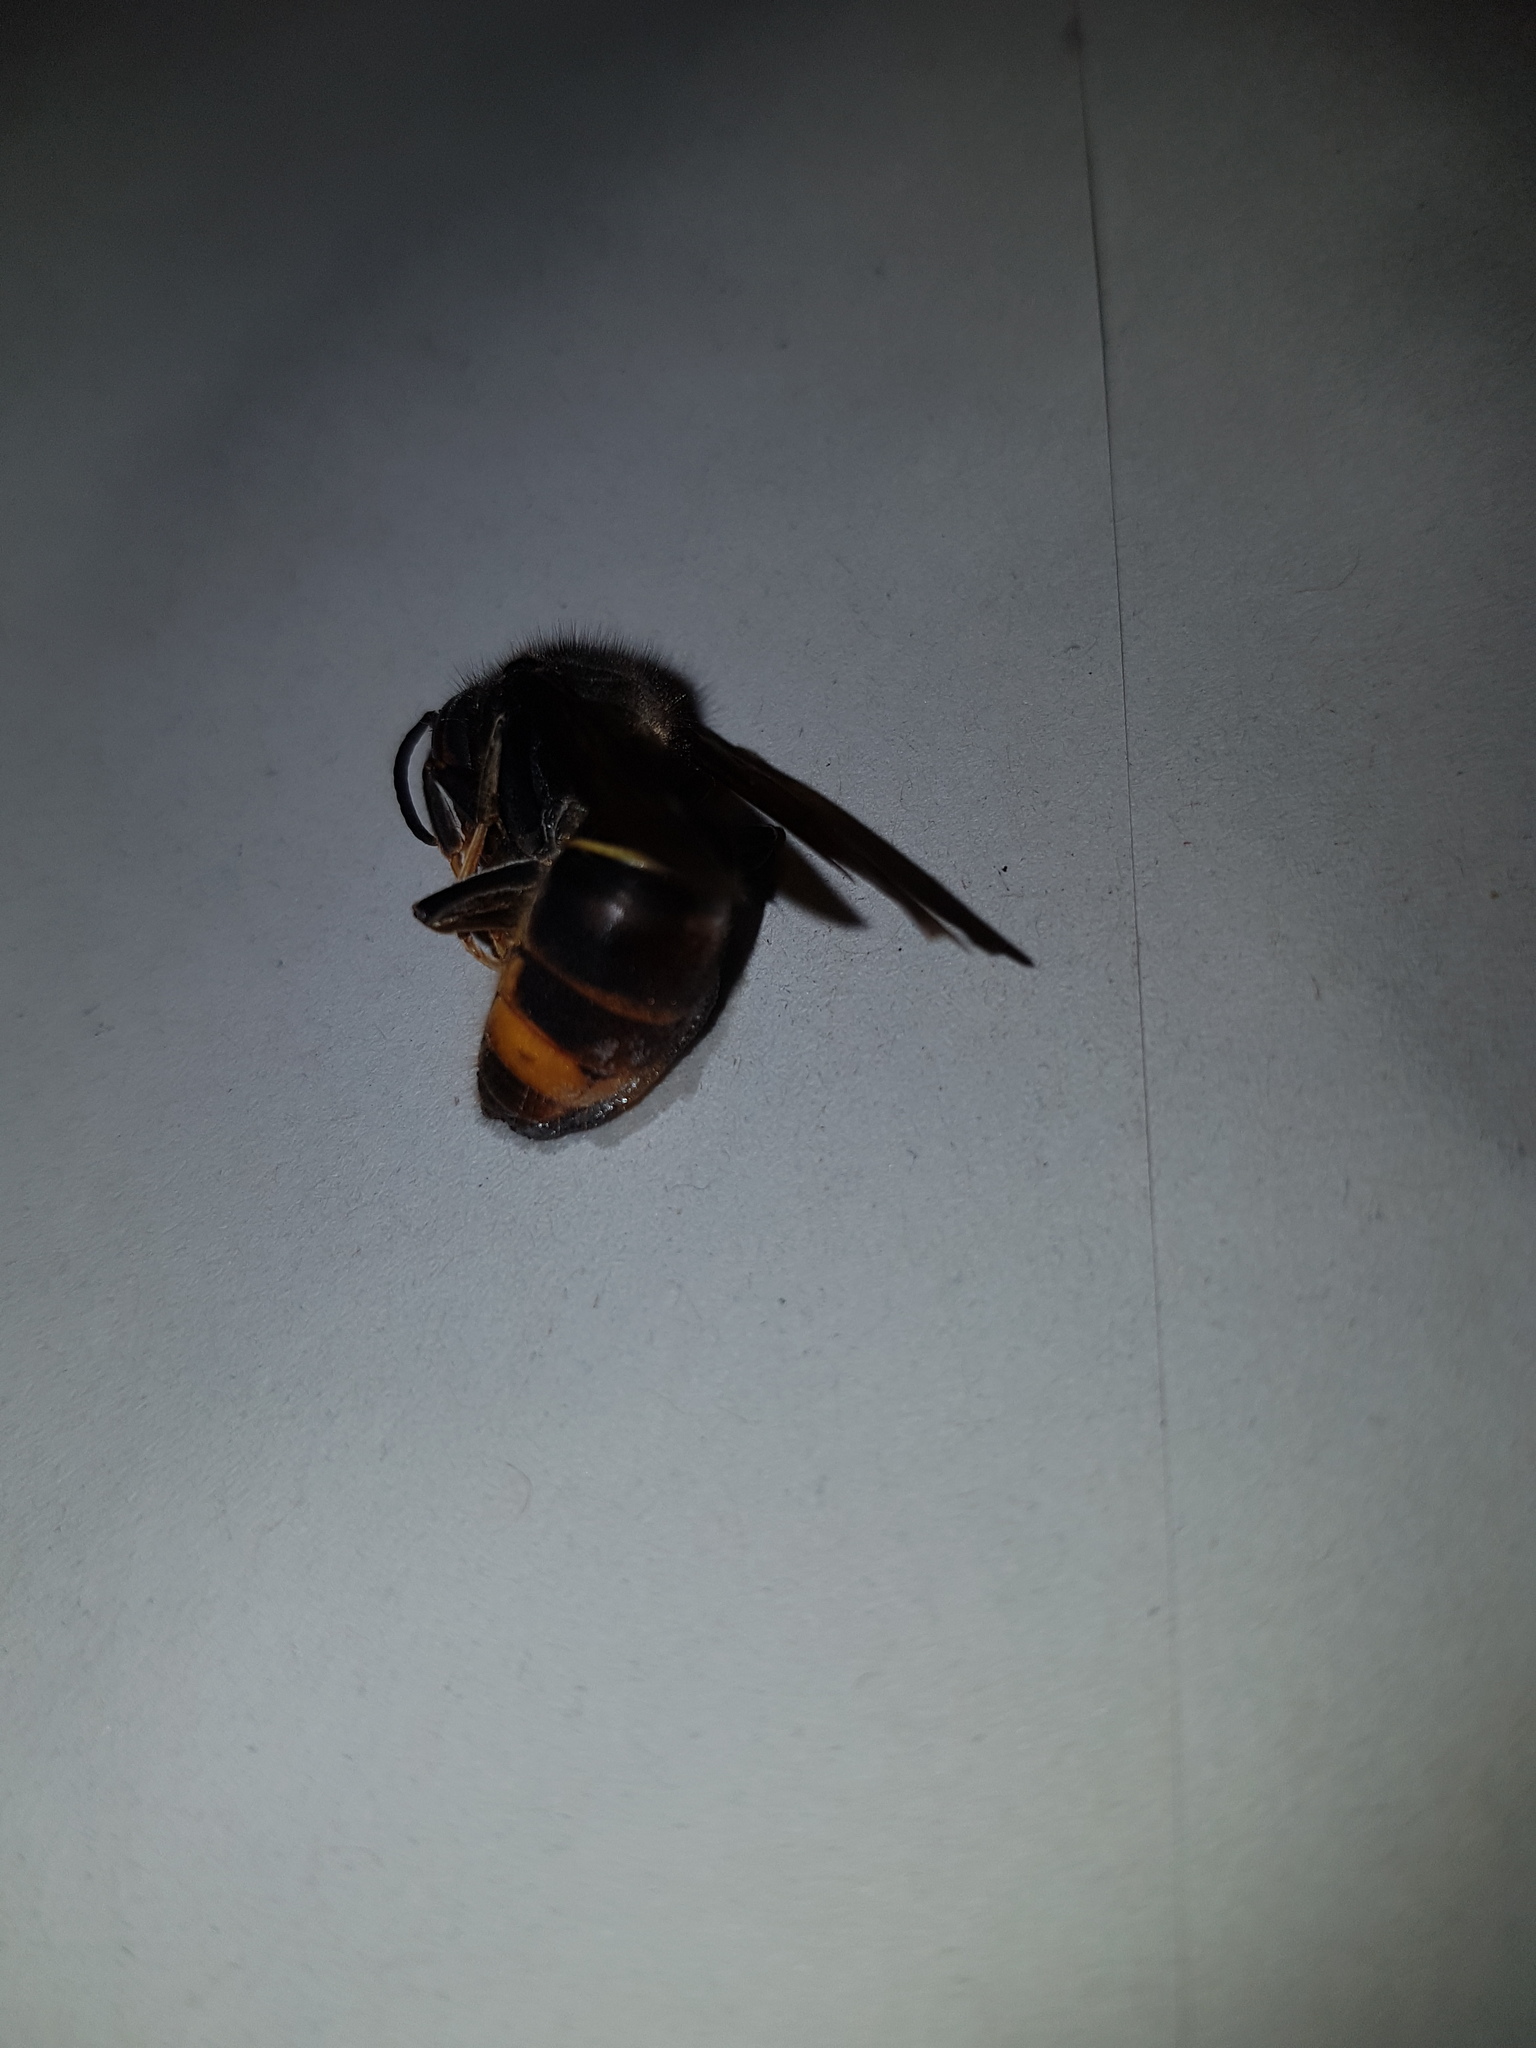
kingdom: Animalia
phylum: Arthropoda
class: Insecta
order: Hymenoptera
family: Vespidae
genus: Vespa
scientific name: Vespa velutina
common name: Asian hornet
